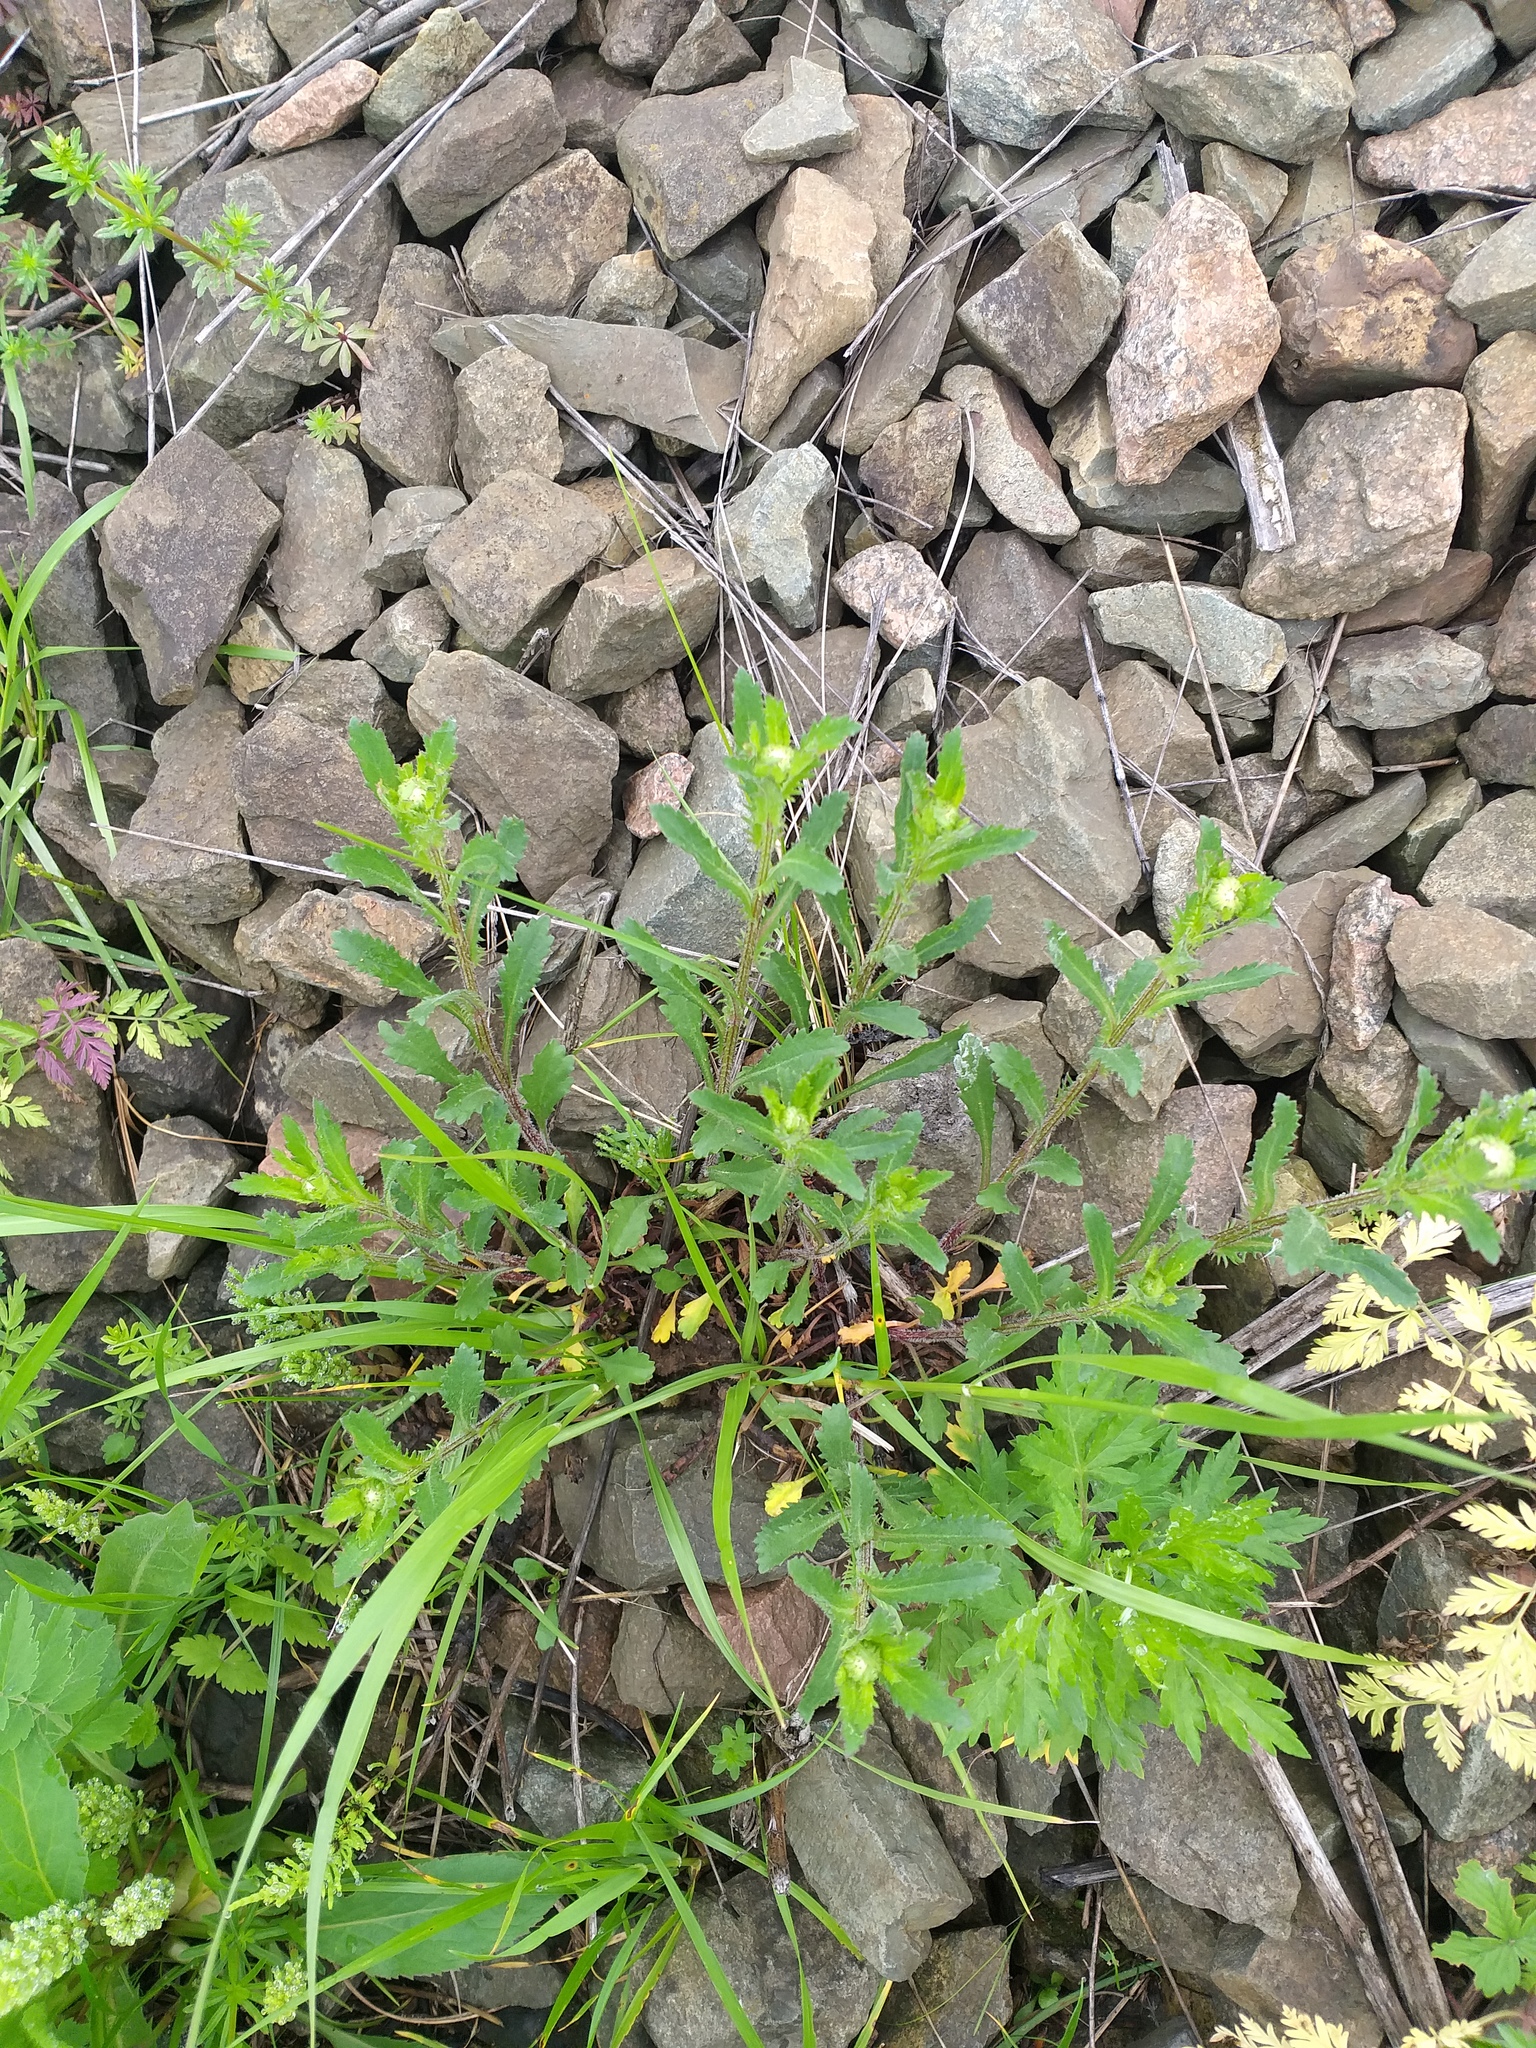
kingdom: Plantae
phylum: Tracheophyta
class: Magnoliopsida
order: Asterales
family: Asteraceae
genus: Leucanthemum
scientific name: Leucanthemum vulgare
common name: Oxeye daisy
